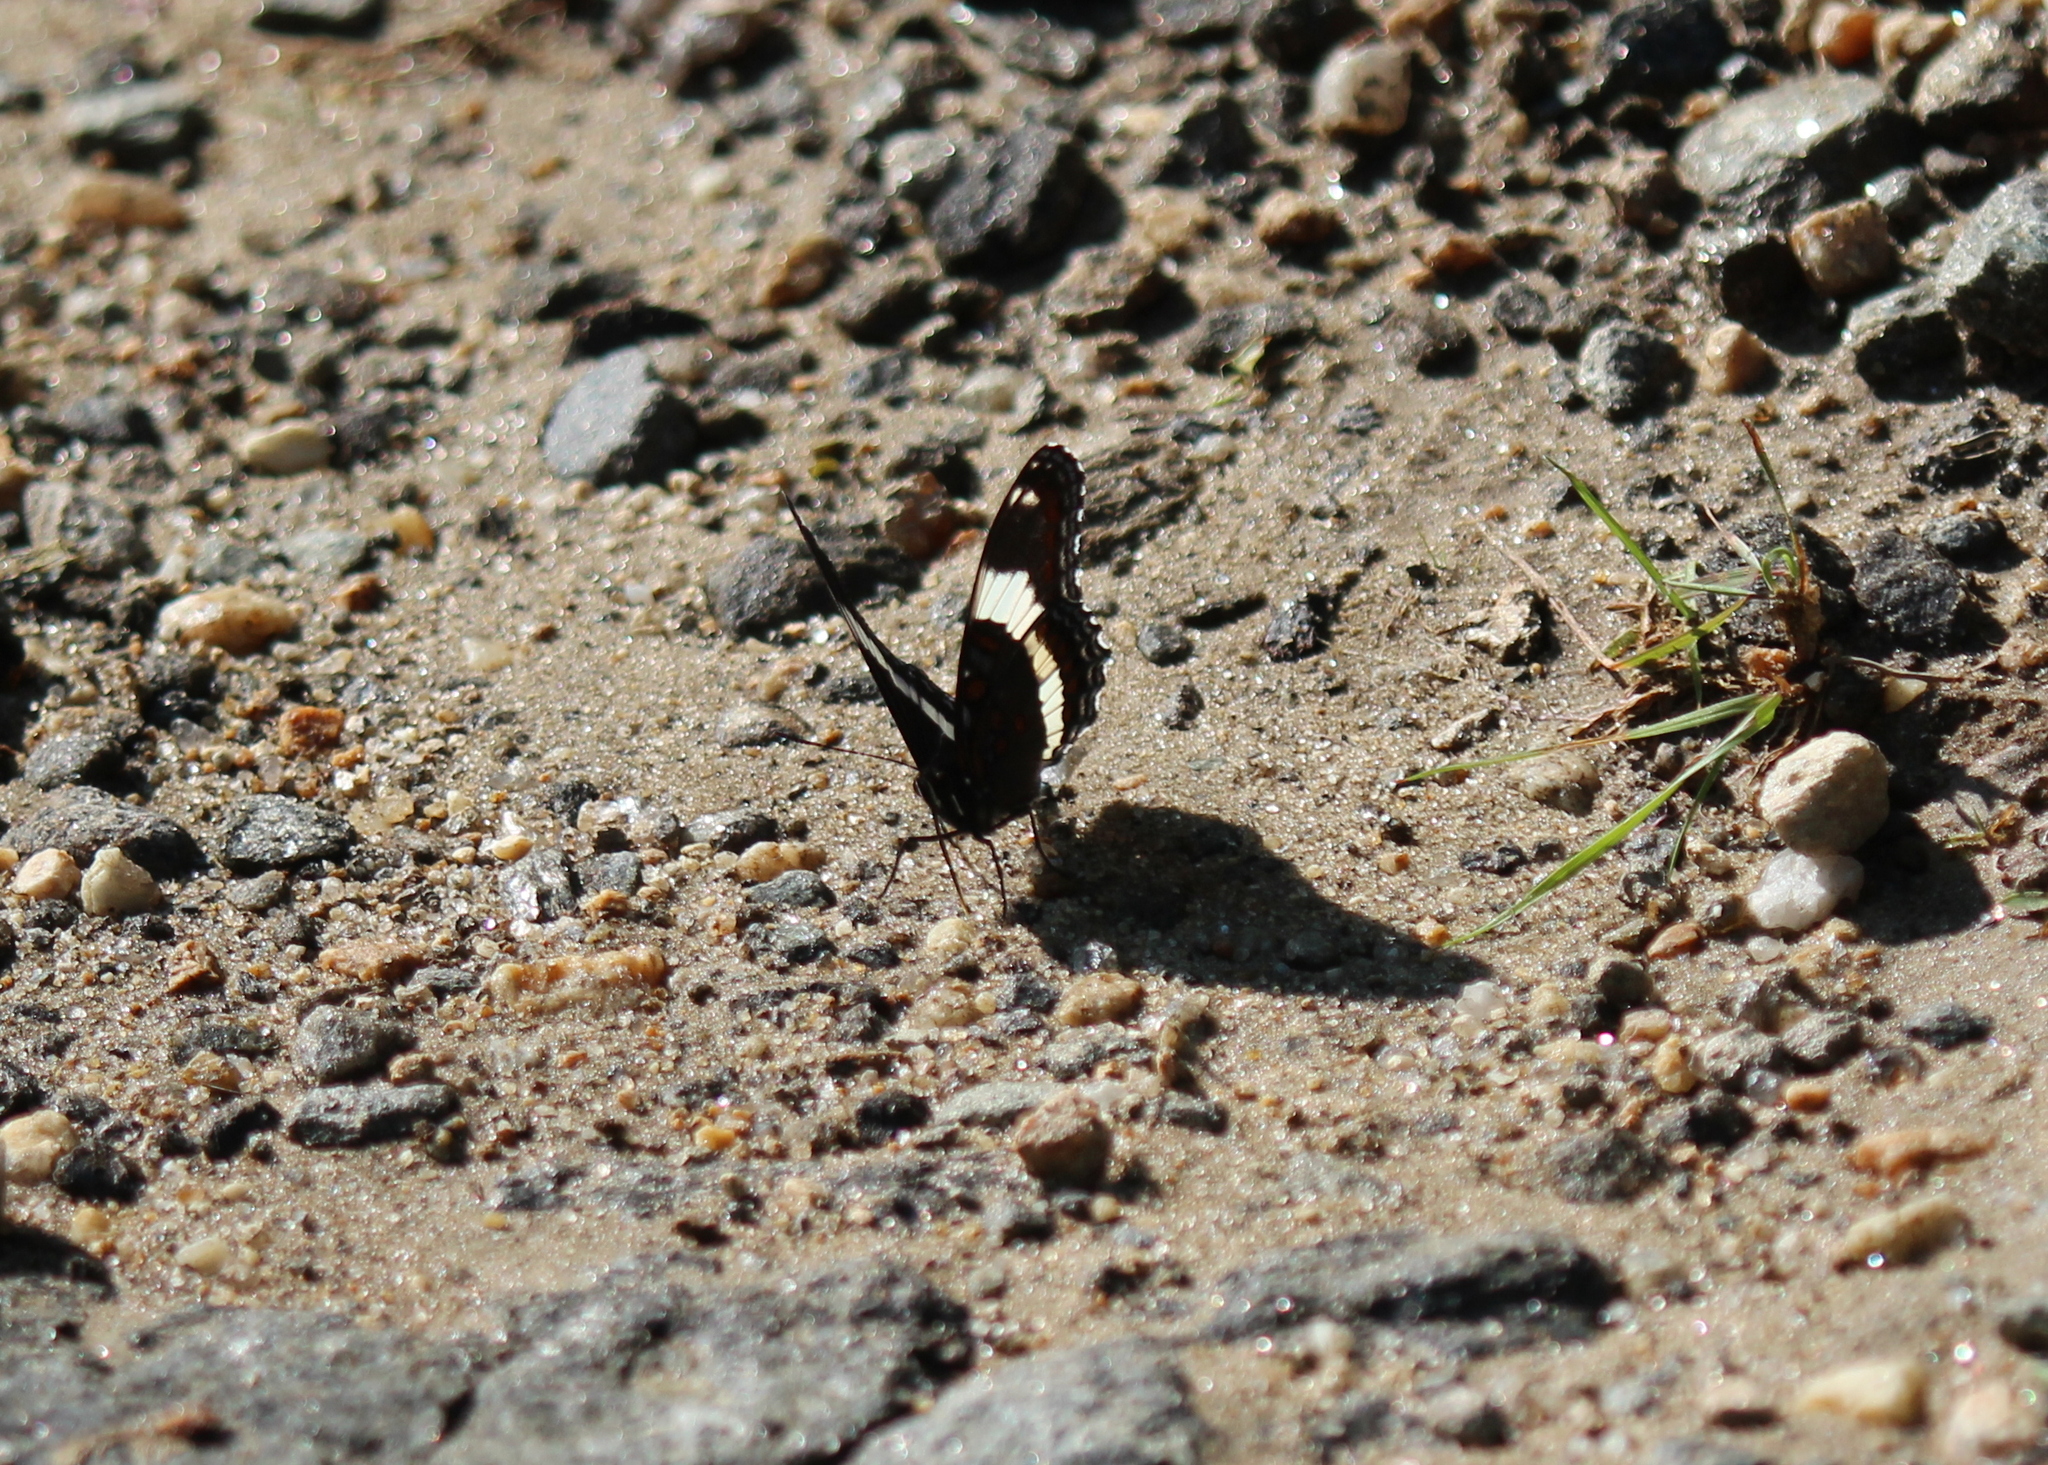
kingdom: Animalia
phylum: Arthropoda
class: Insecta
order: Lepidoptera
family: Nymphalidae
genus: Limenitis
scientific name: Limenitis arthemis
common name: Red-spotted admiral
